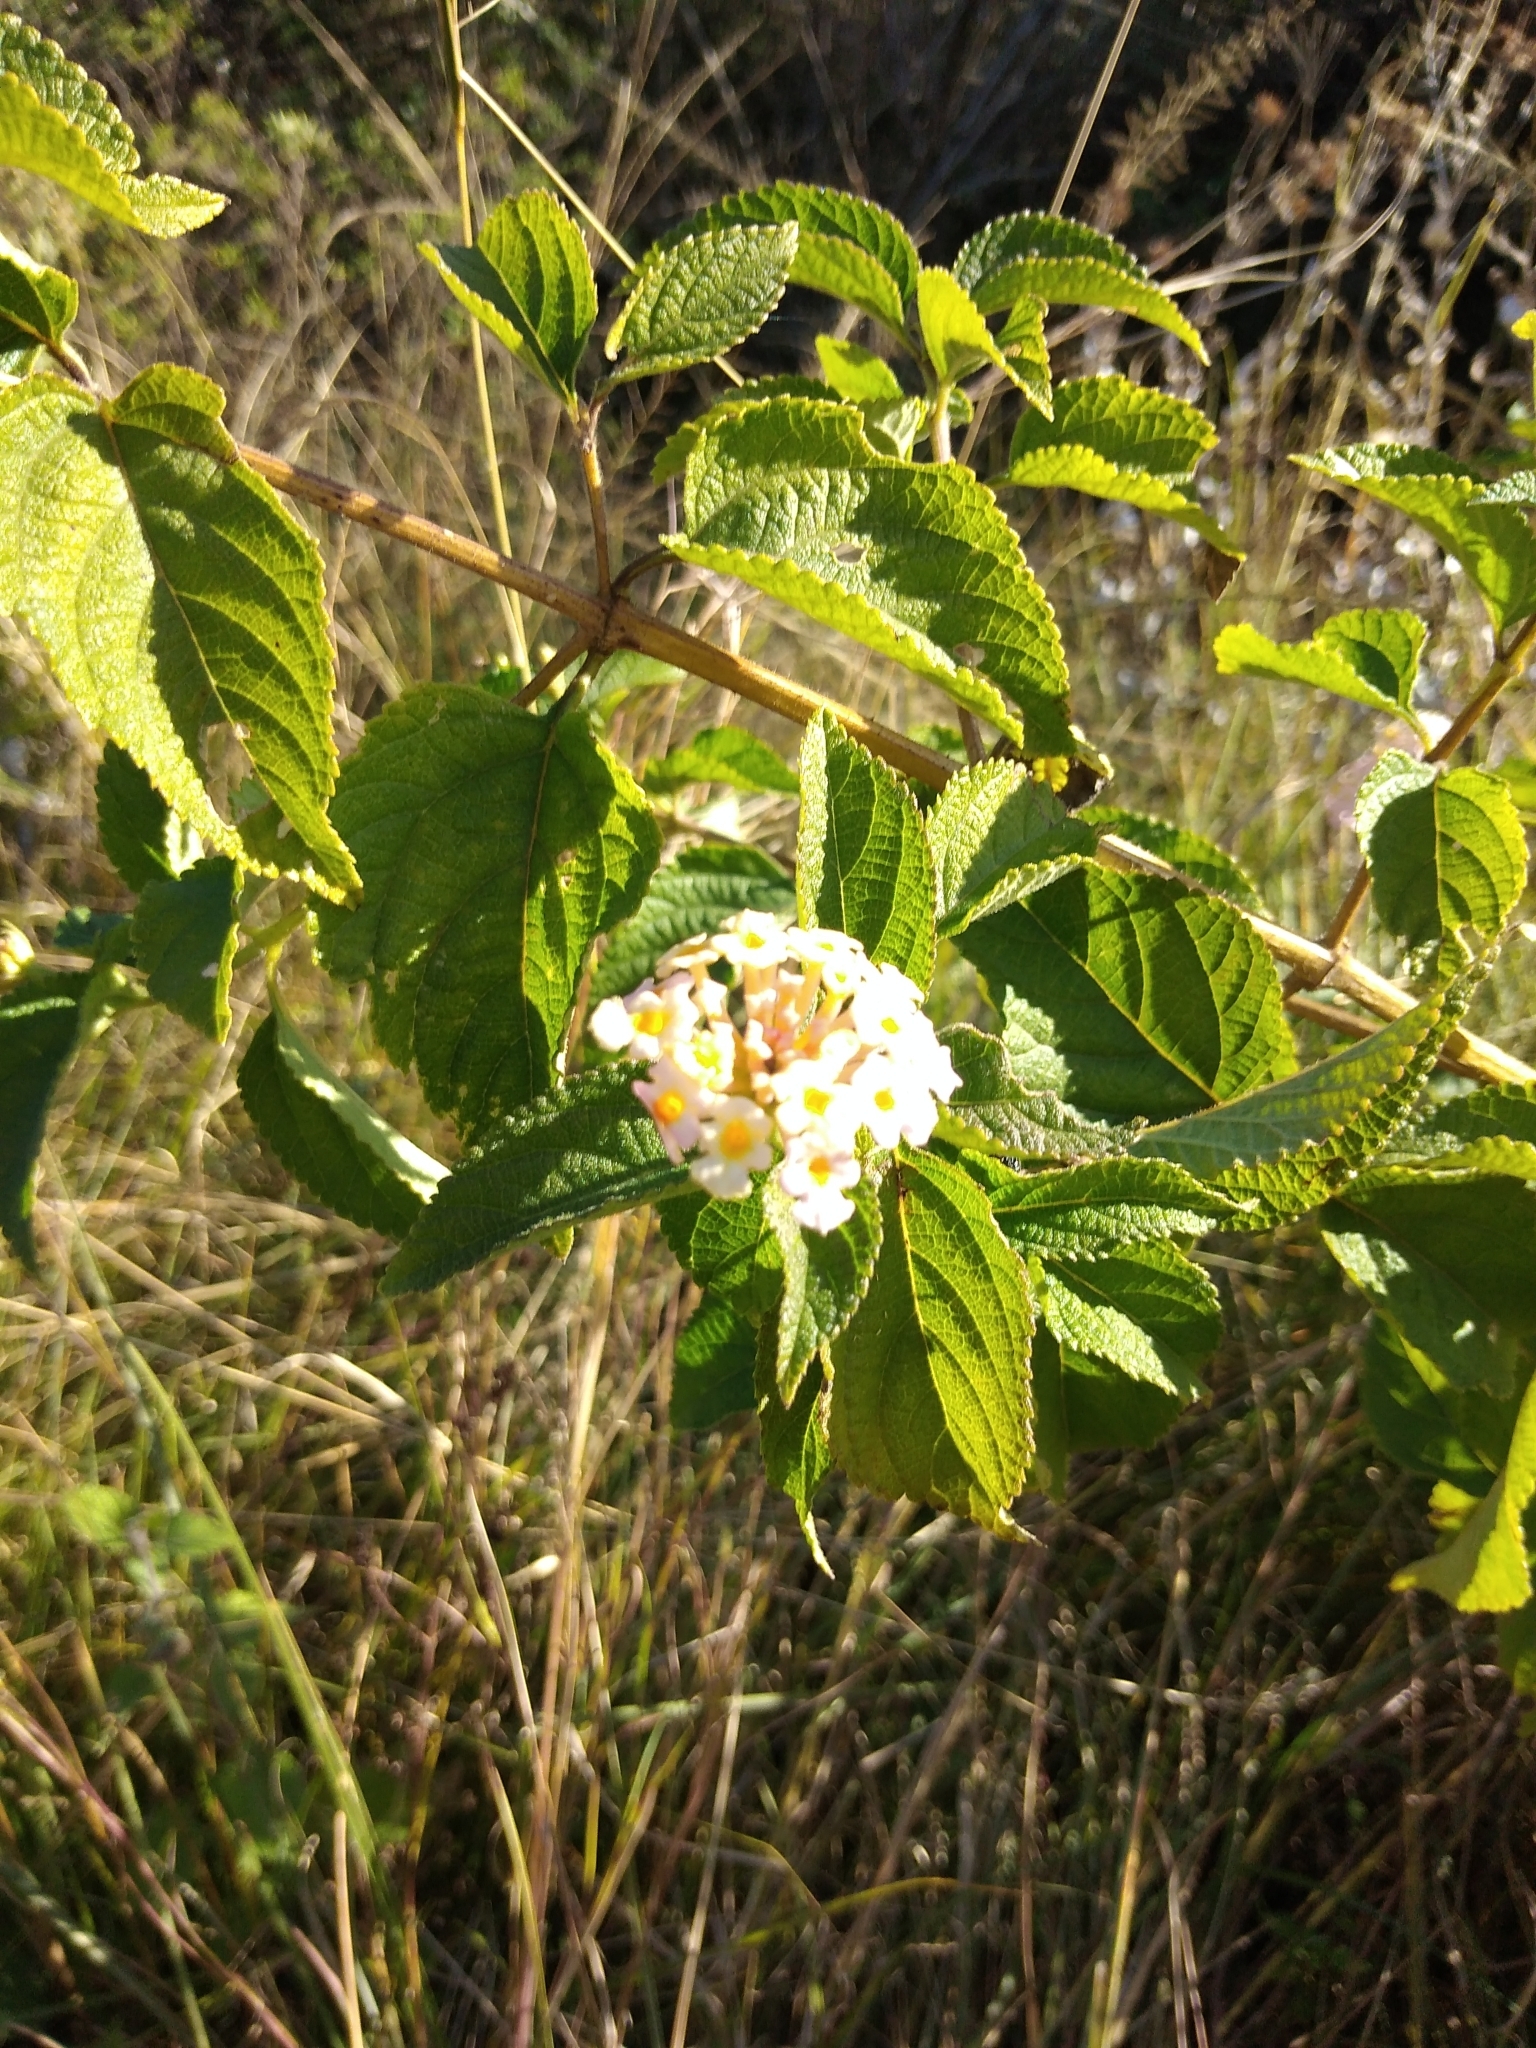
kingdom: Plantae
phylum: Tracheophyta
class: Magnoliopsida
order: Lamiales
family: Verbenaceae
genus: Lantana
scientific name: Lantana camara
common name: Lantana
